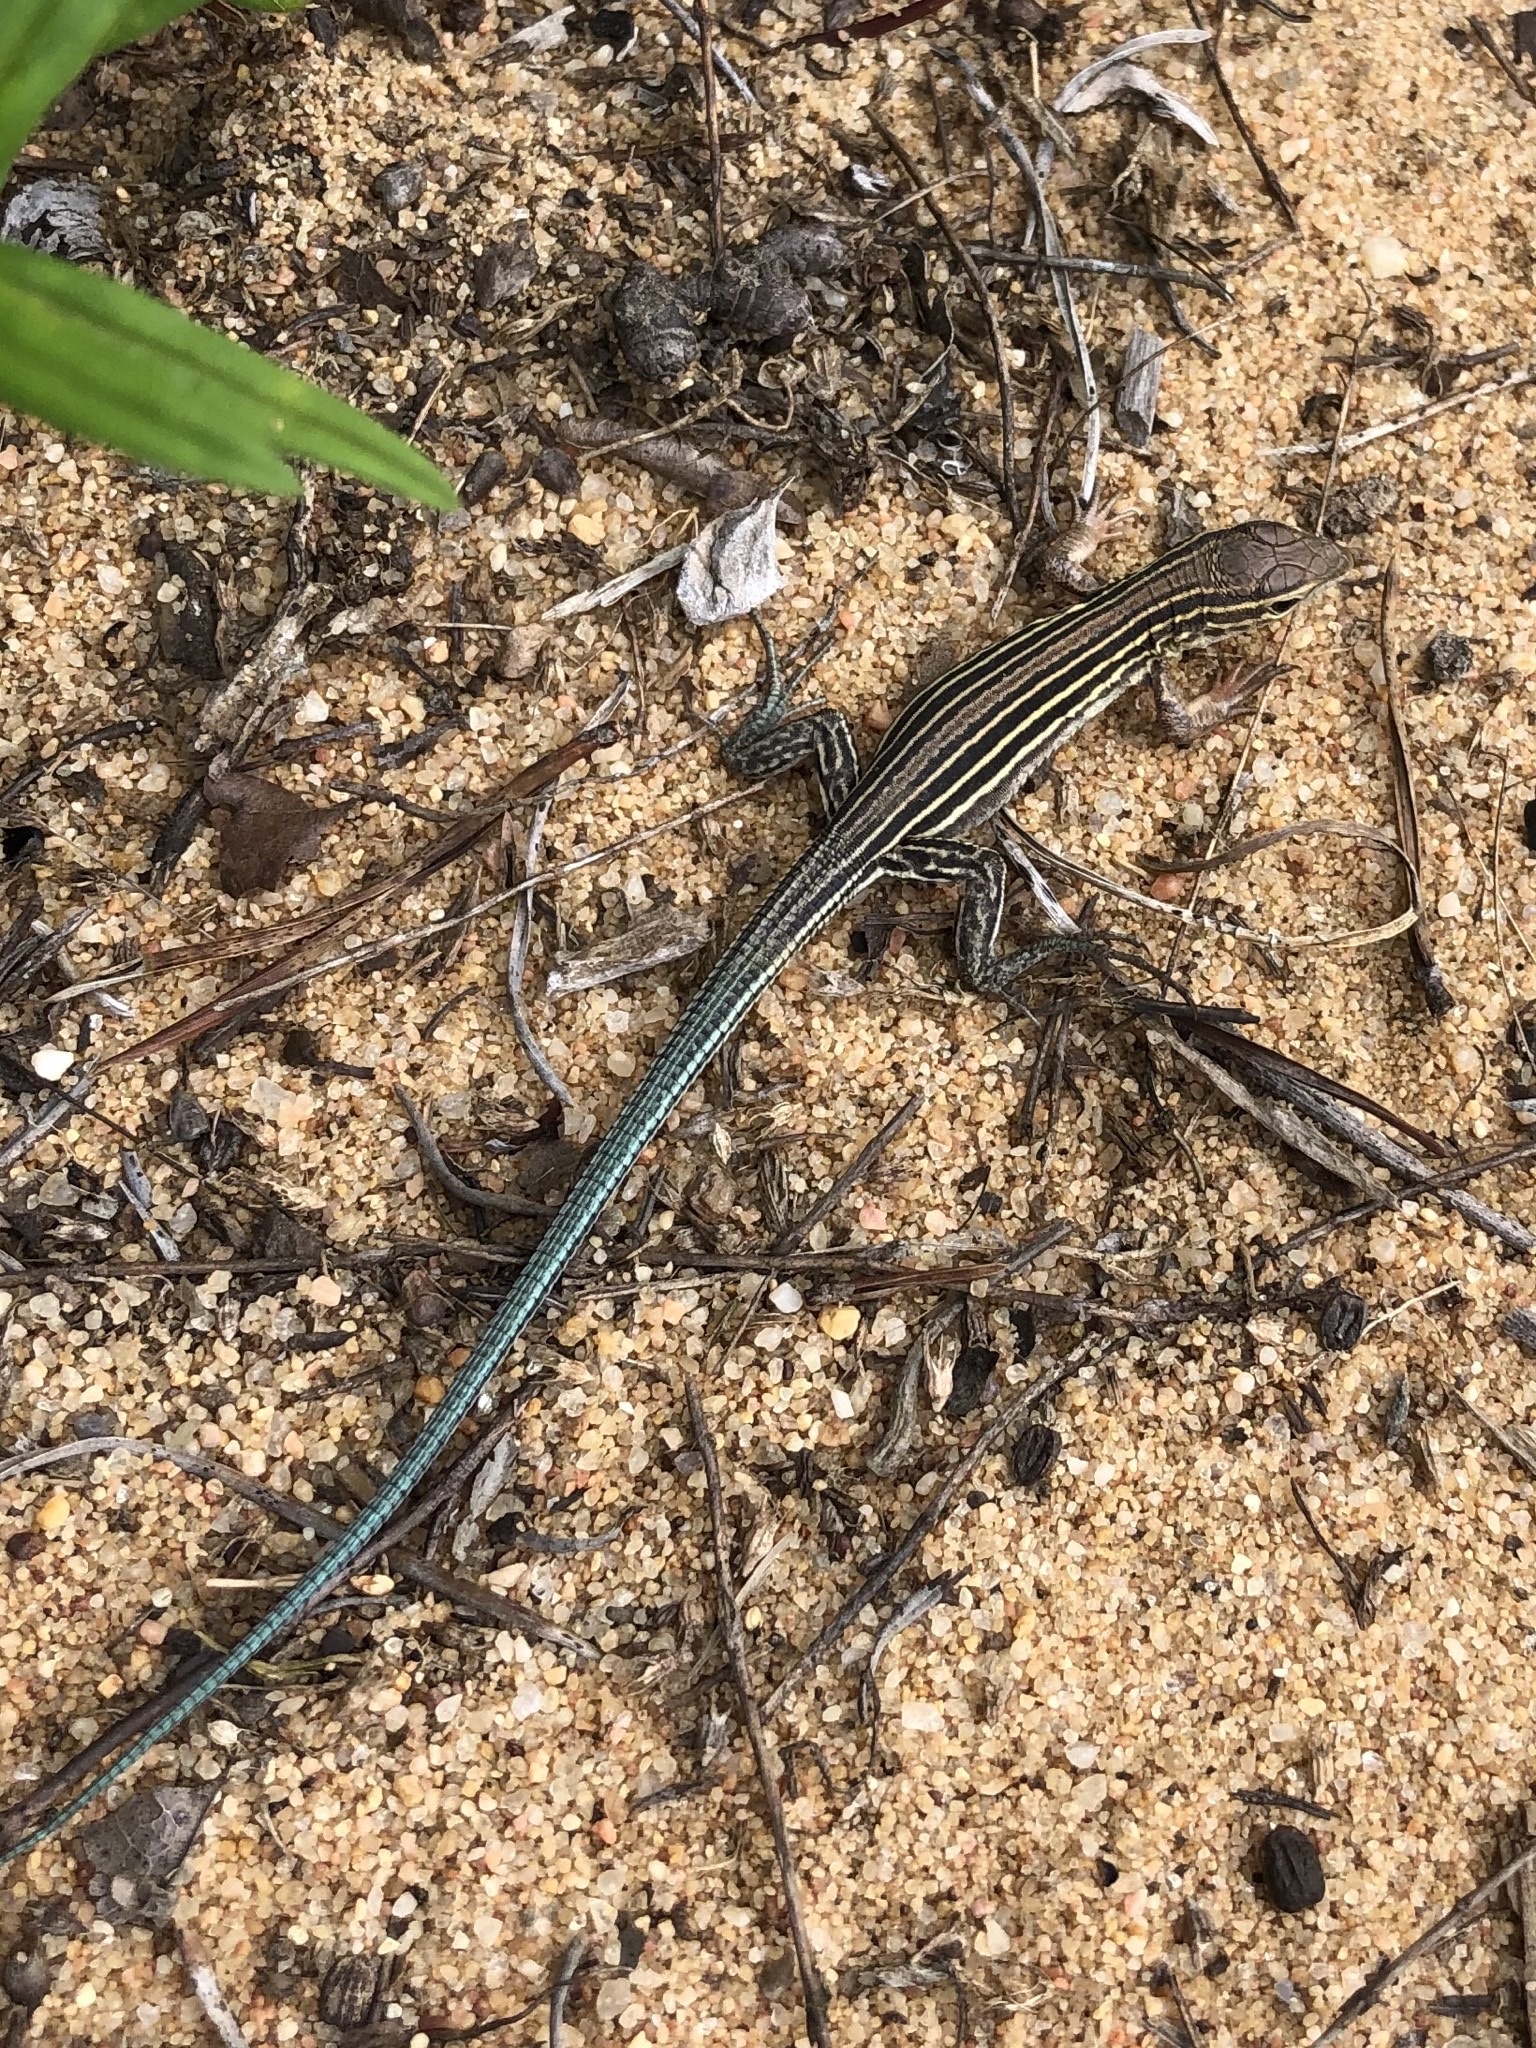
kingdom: Animalia
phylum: Chordata
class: Squamata
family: Teiidae
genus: Aspidoscelis
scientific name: Aspidoscelis sexlineatus
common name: Six-lined racerunner
